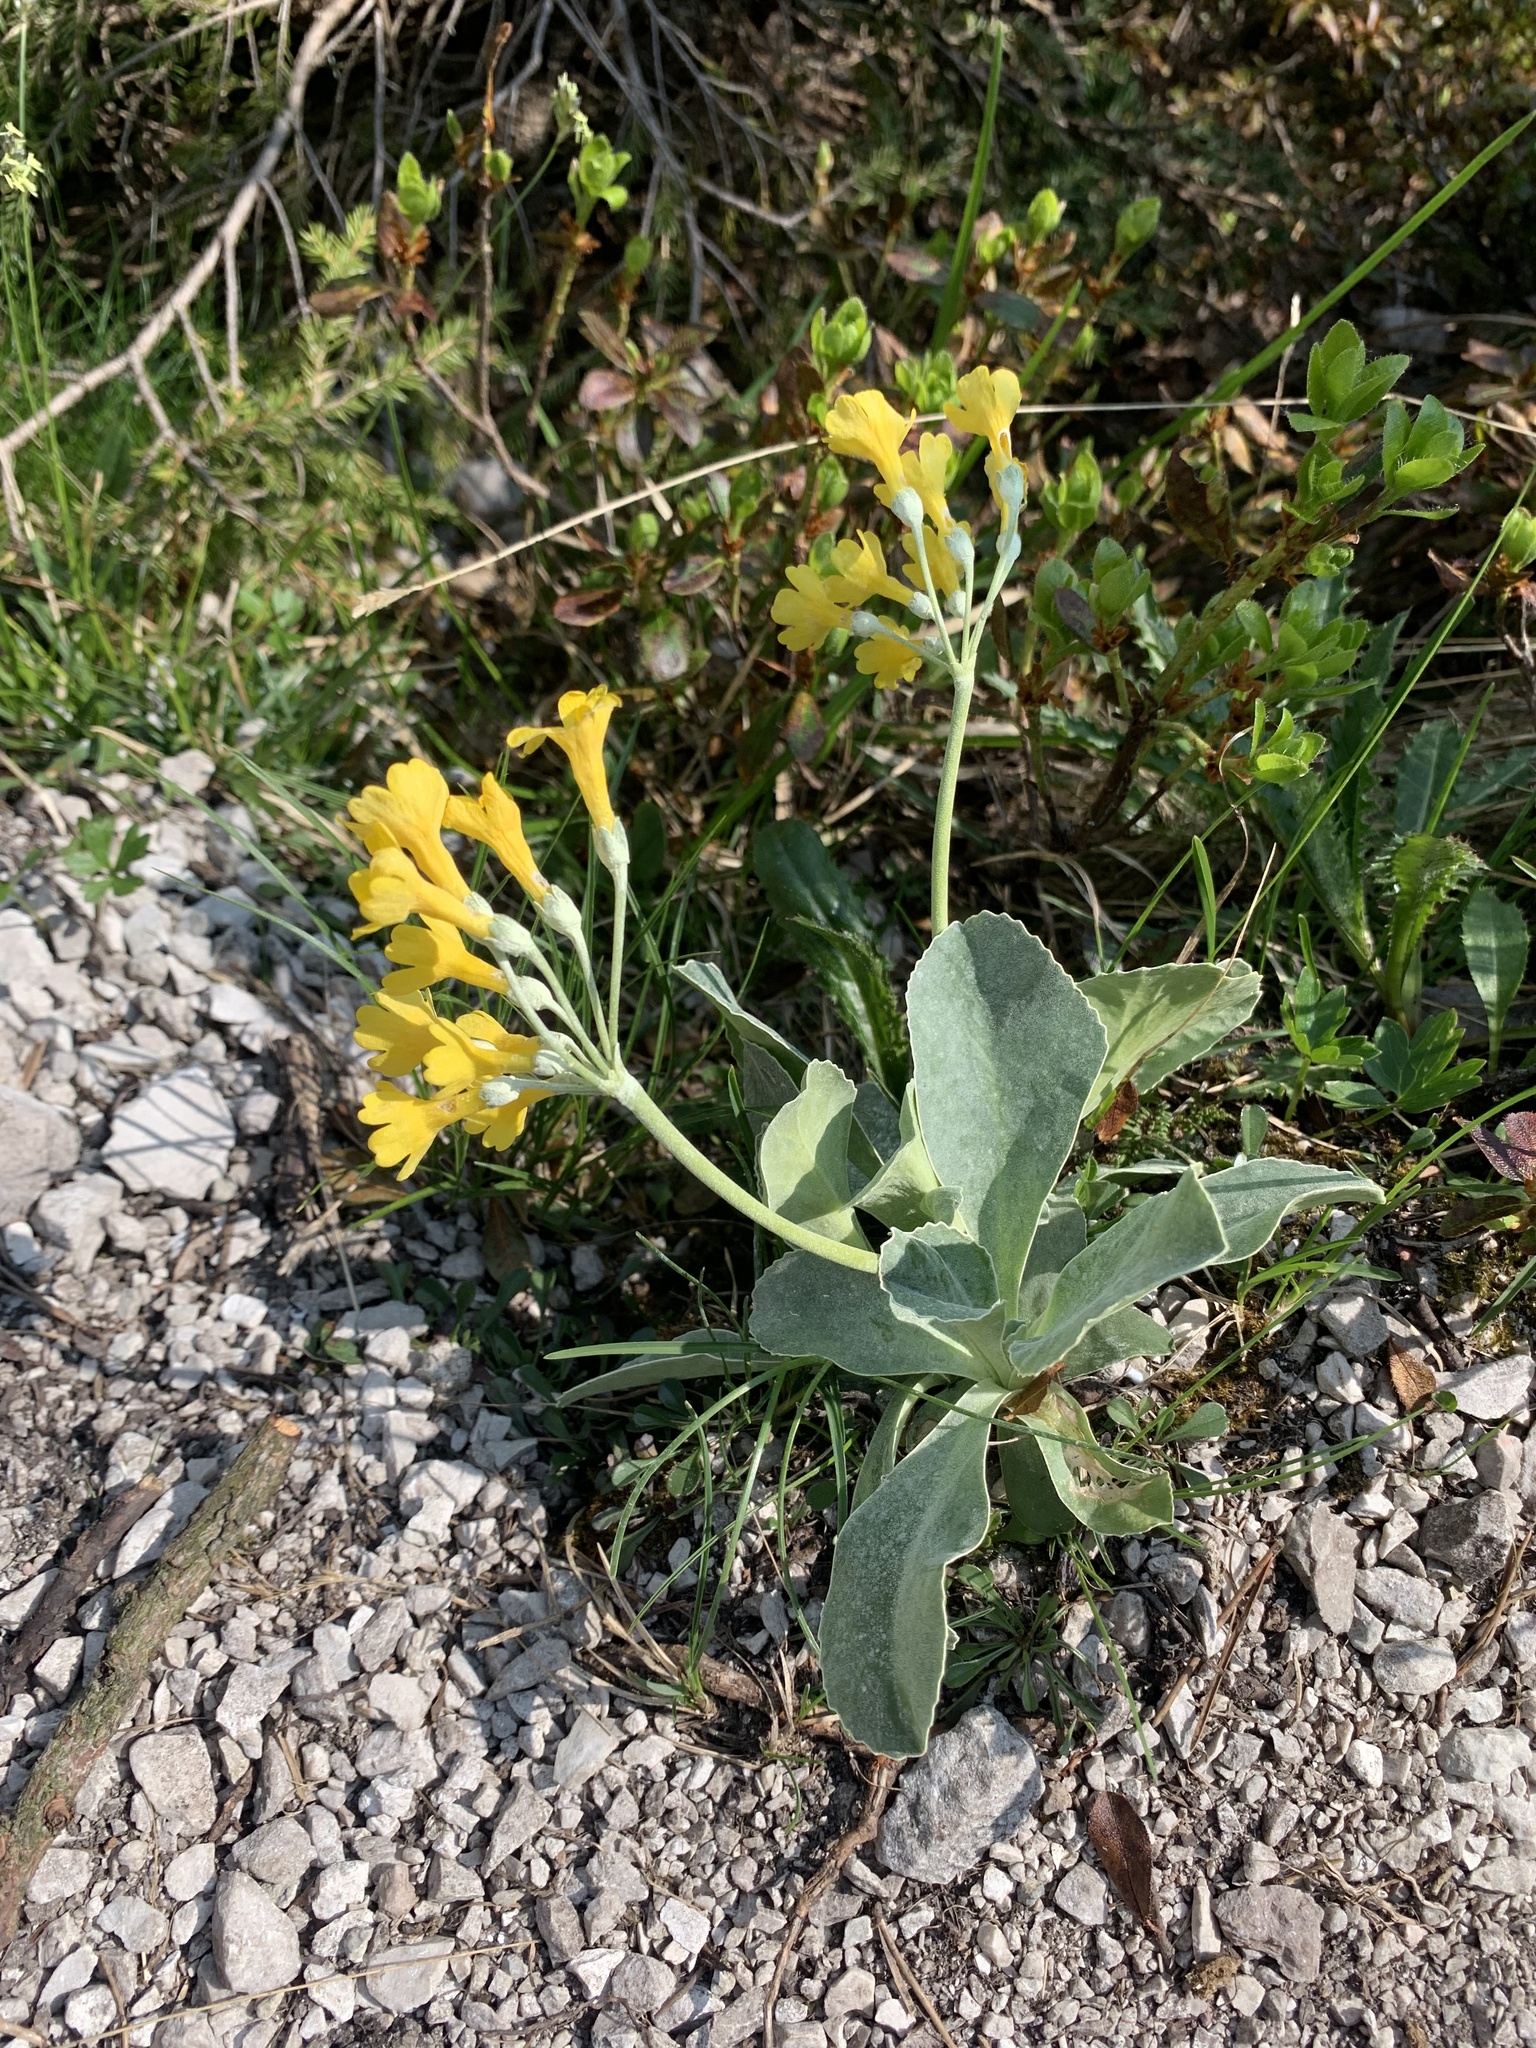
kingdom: Plantae
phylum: Tracheophyta
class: Magnoliopsida
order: Ericales
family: Primulaceae
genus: Primula
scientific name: Primula auricula
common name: Auricula
